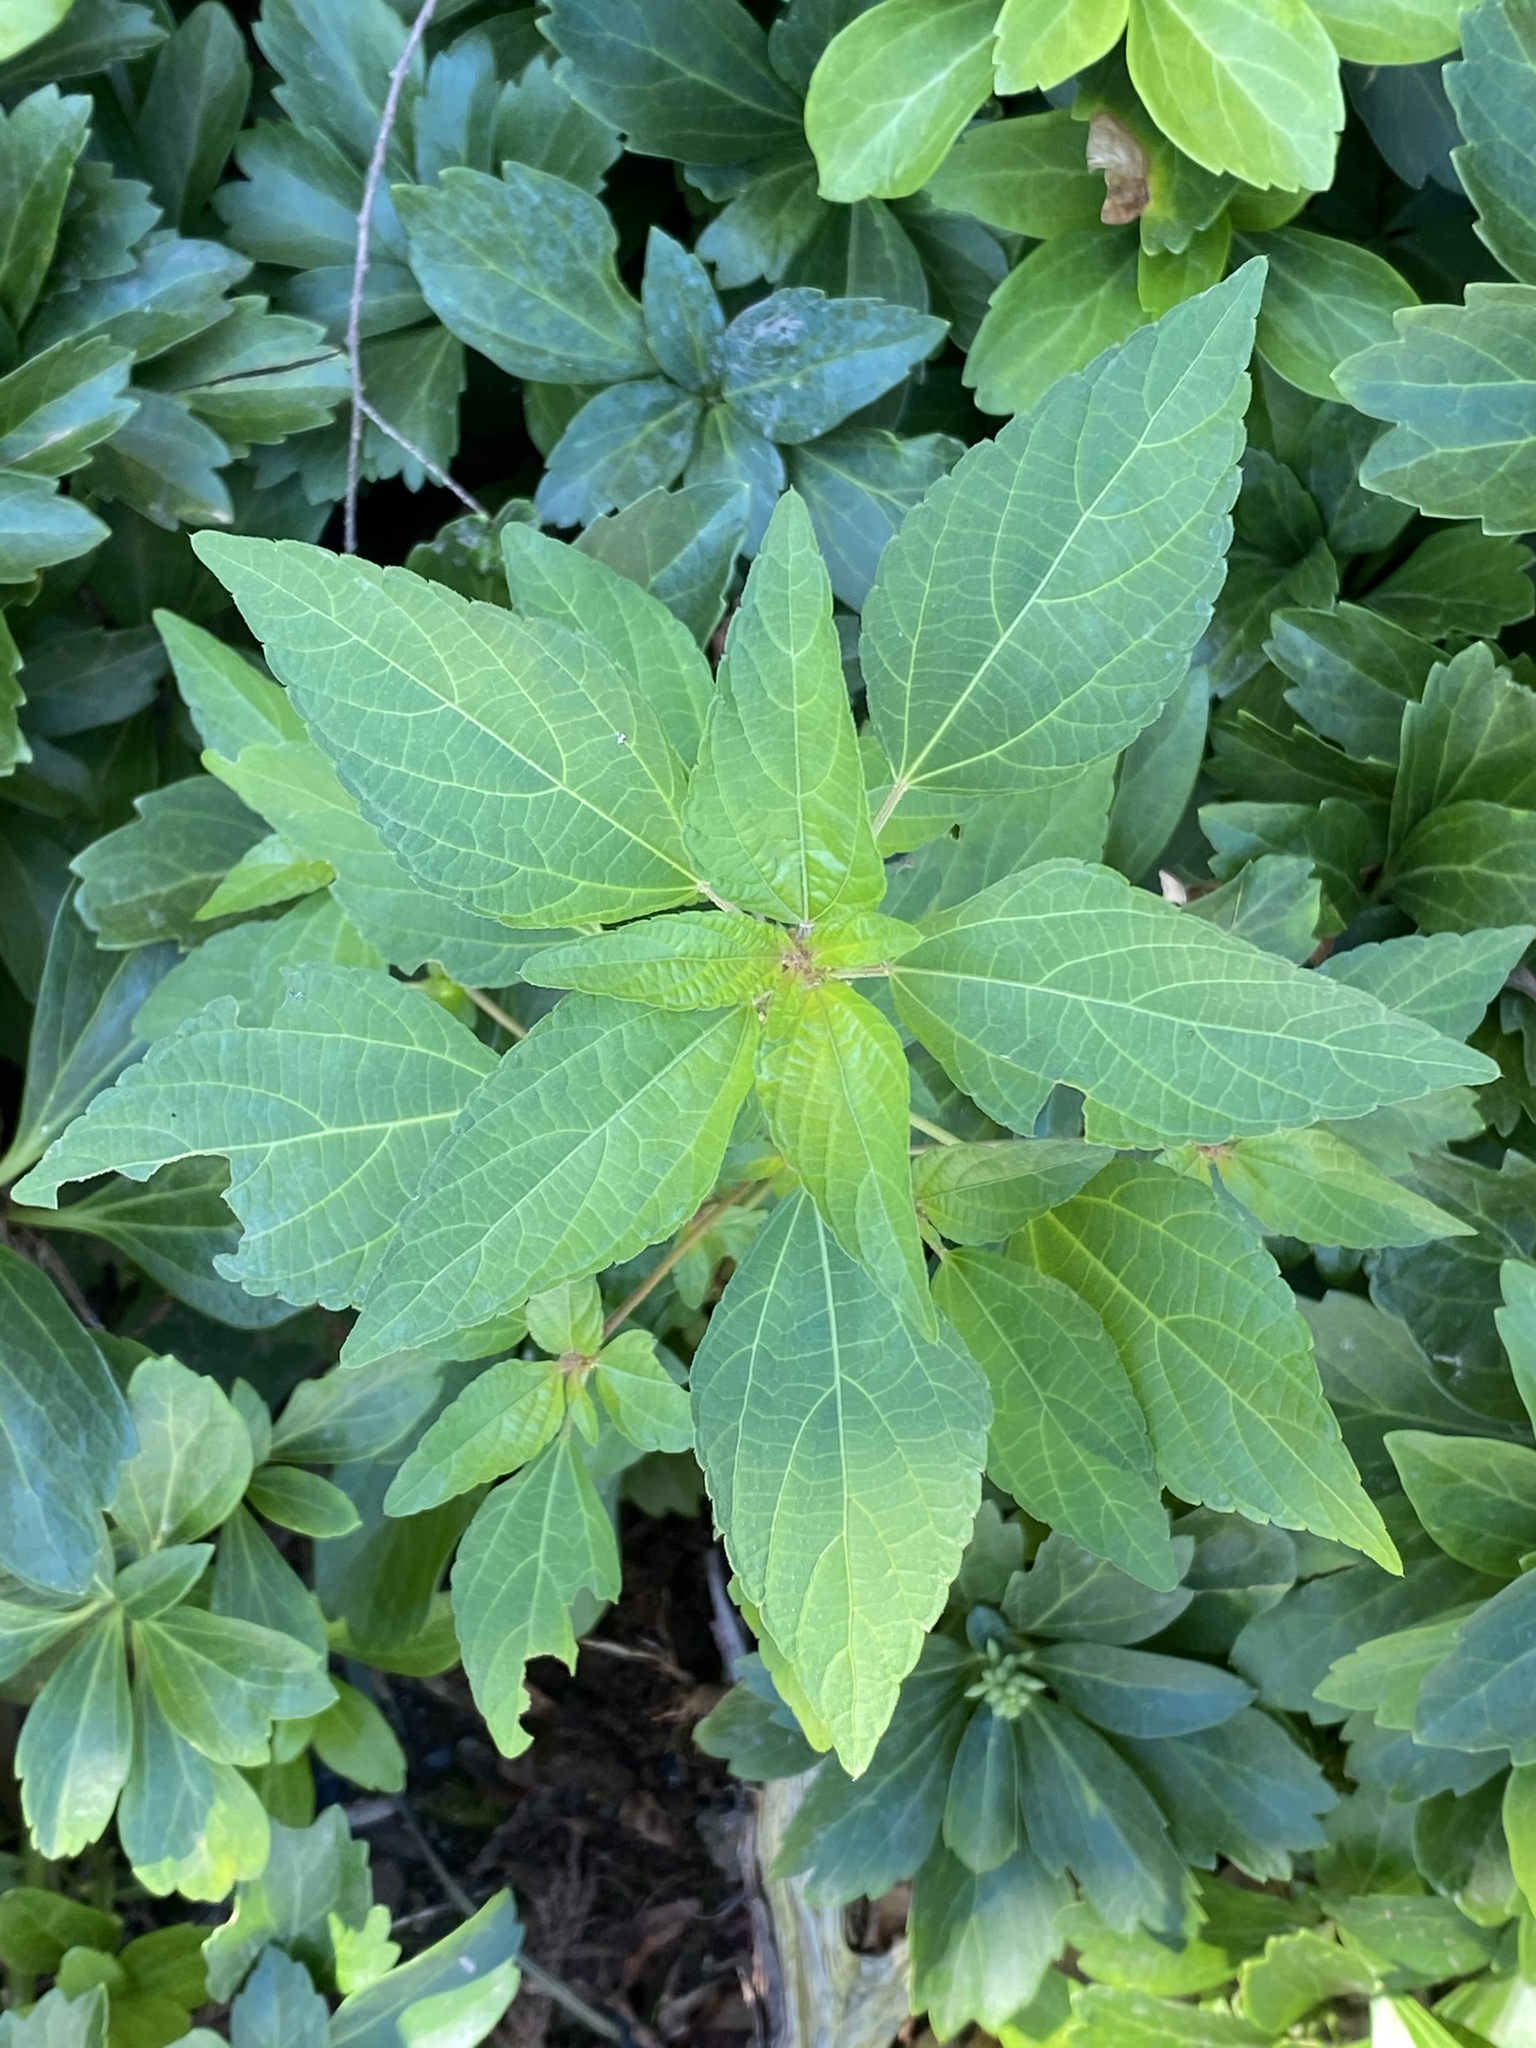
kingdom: Plantae
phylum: Tracheophyta
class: Magnoliopsida
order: Malpighiales
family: Euphorbiaceae
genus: Acalypha
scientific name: Acalypha rhomboidea
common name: Rhombic copperleaf
